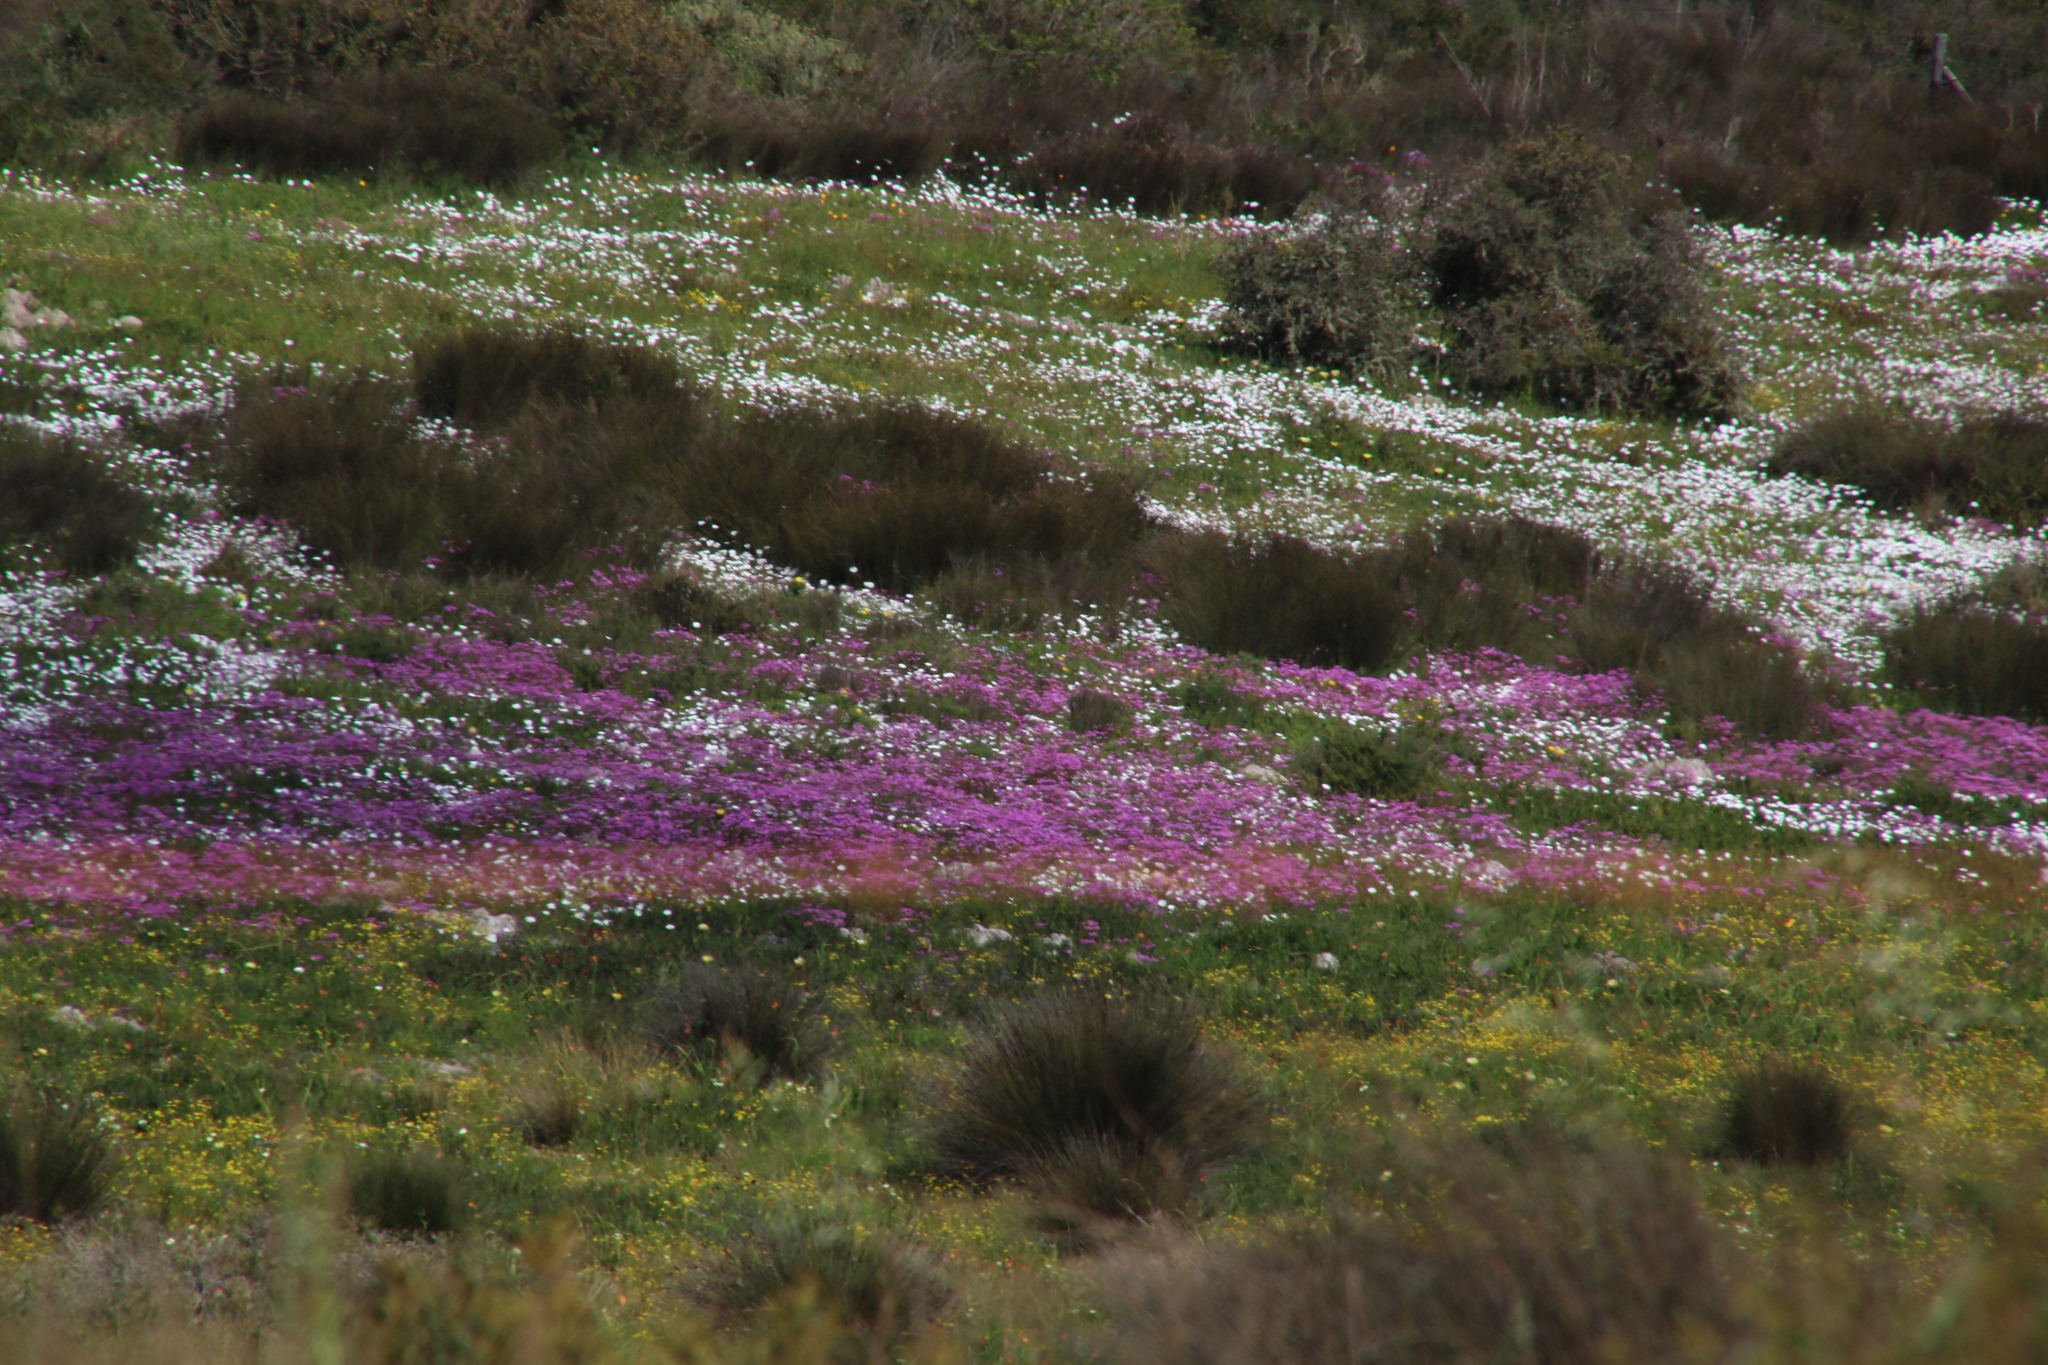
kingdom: Plantae
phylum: Tracheophyta
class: Magnoliopsida
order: Asterales
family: Asteraceae
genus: Dimorphotheca
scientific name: Dimorphotheca pluvialis
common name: Weather prophet
